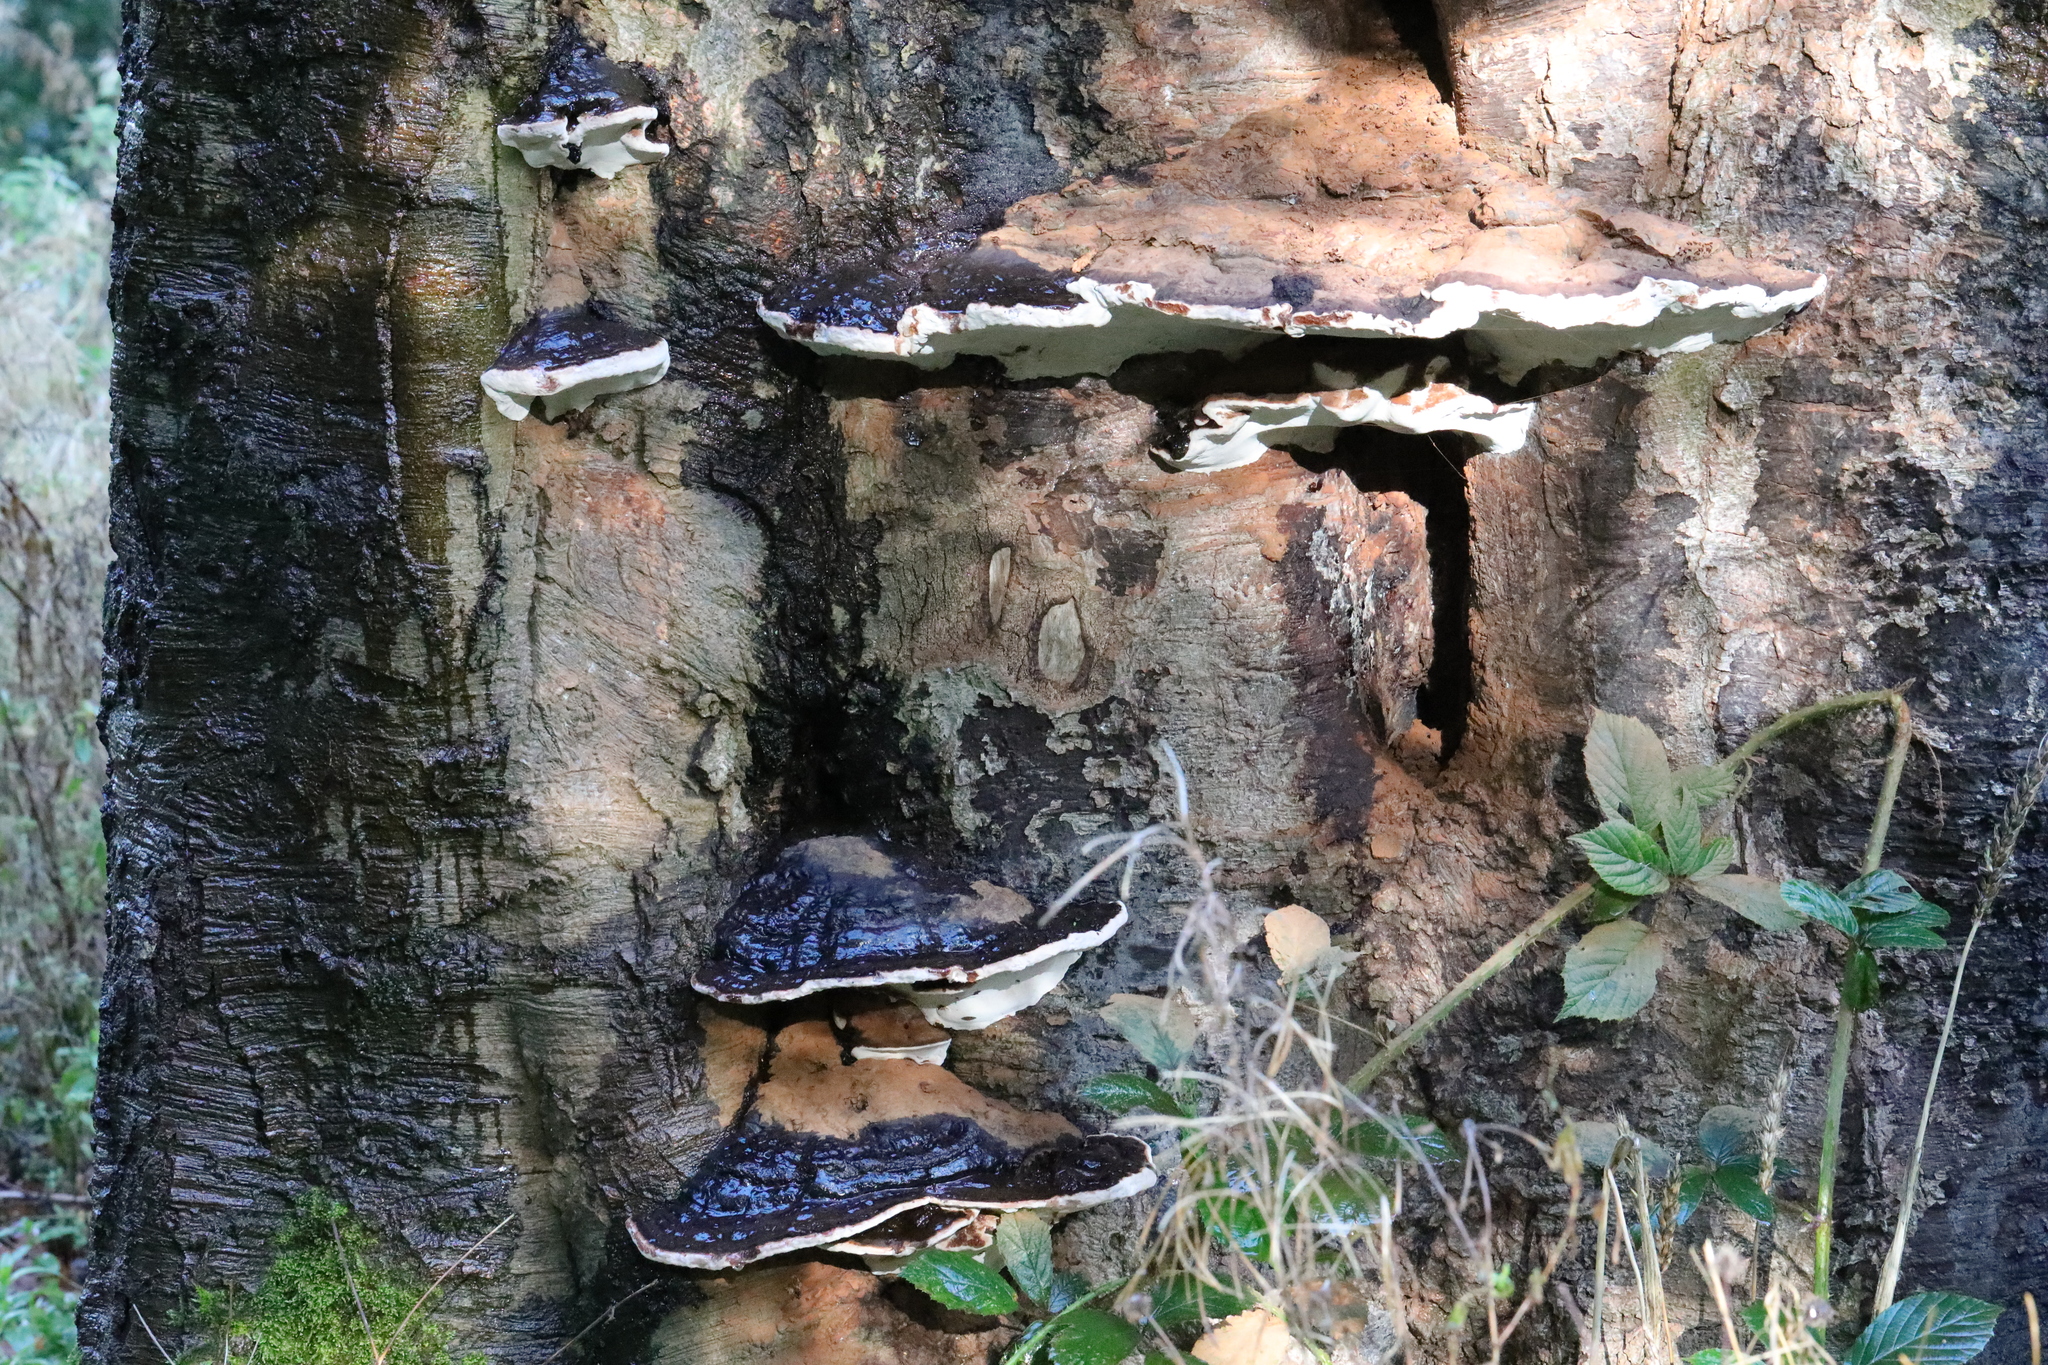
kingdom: Fungi
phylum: Basidiomycota
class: Agaricomycetes
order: Polyporales
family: Polyporaceae
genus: Ganoderma
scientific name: Ganoderma applanatum
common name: Artist's bracket
